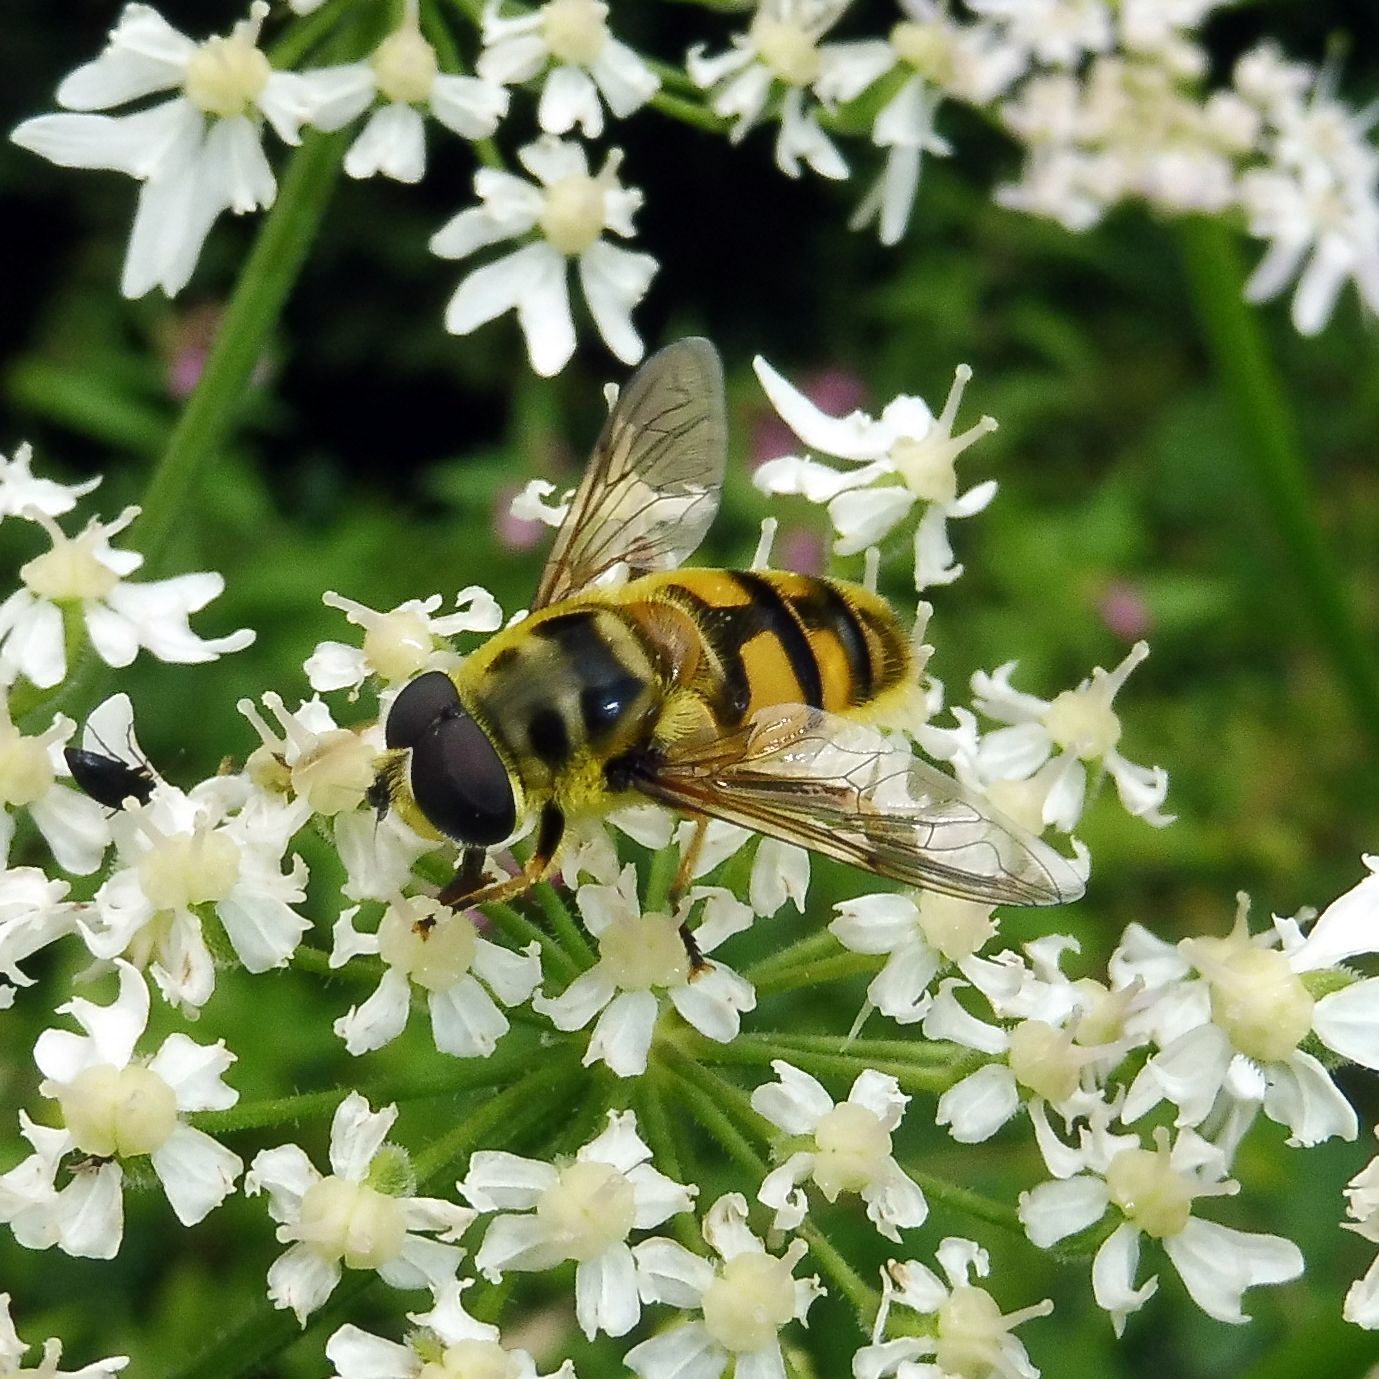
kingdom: Animalia
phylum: Arthropoda
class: Insecta
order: Diptera
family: Syrphidae
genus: Myathropa
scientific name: Myathropa florea
